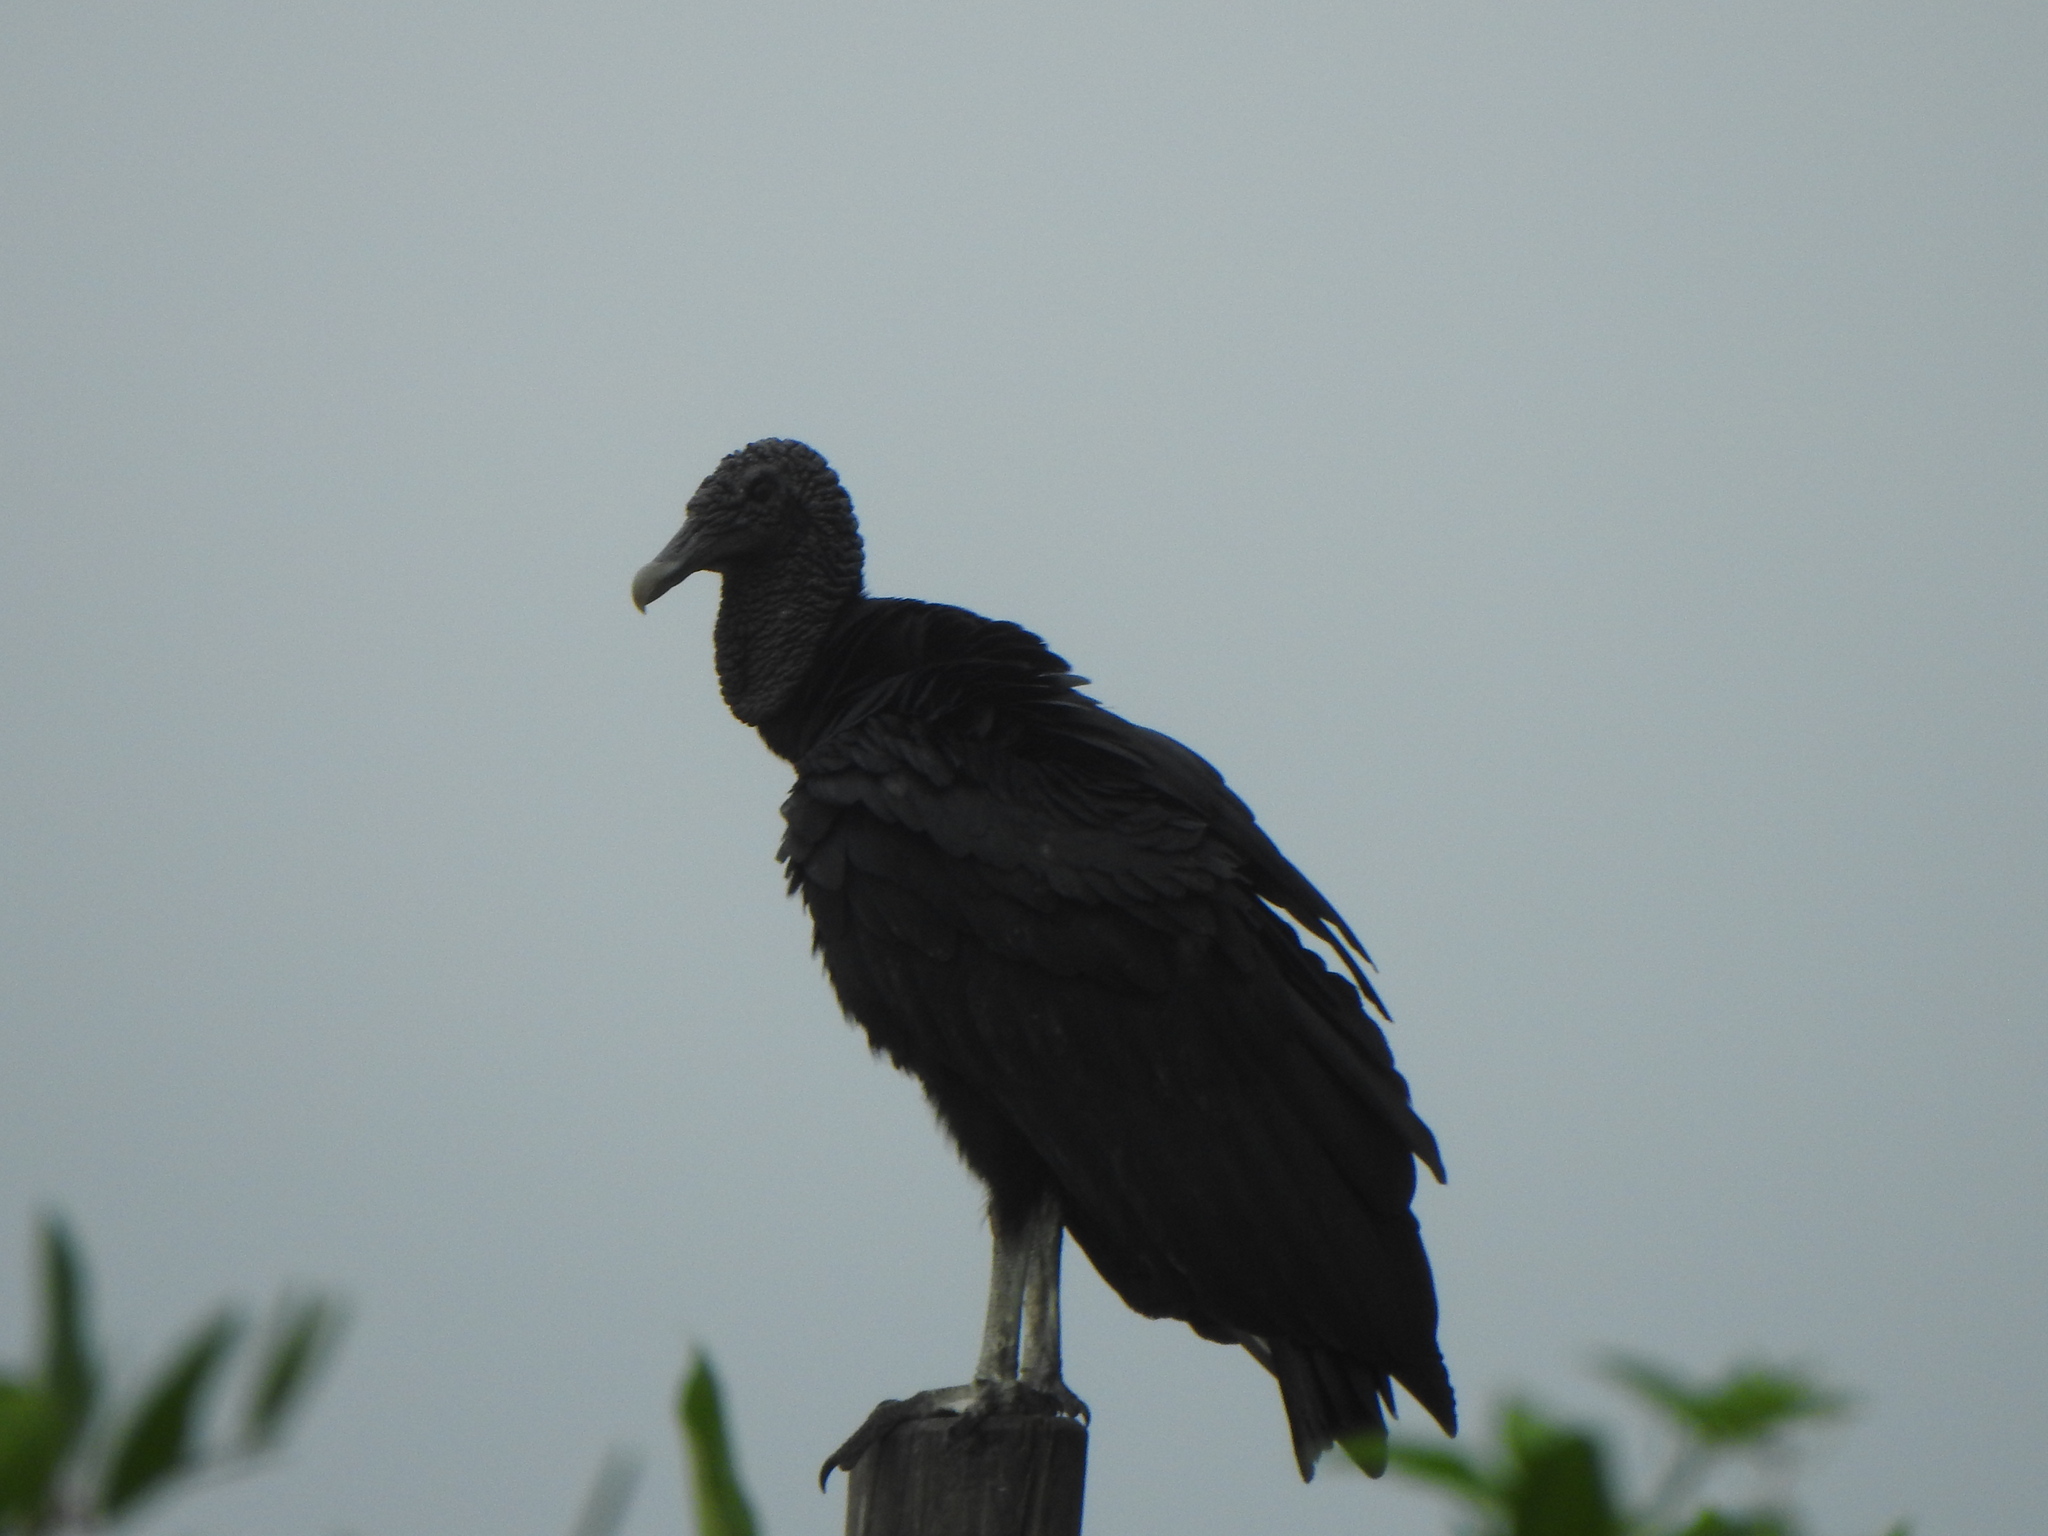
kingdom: Animalia
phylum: Chordata
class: Aves
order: Accipitriformes
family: Cathartidae
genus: Coragyps
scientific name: Coragyps atratus
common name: Black vulture
